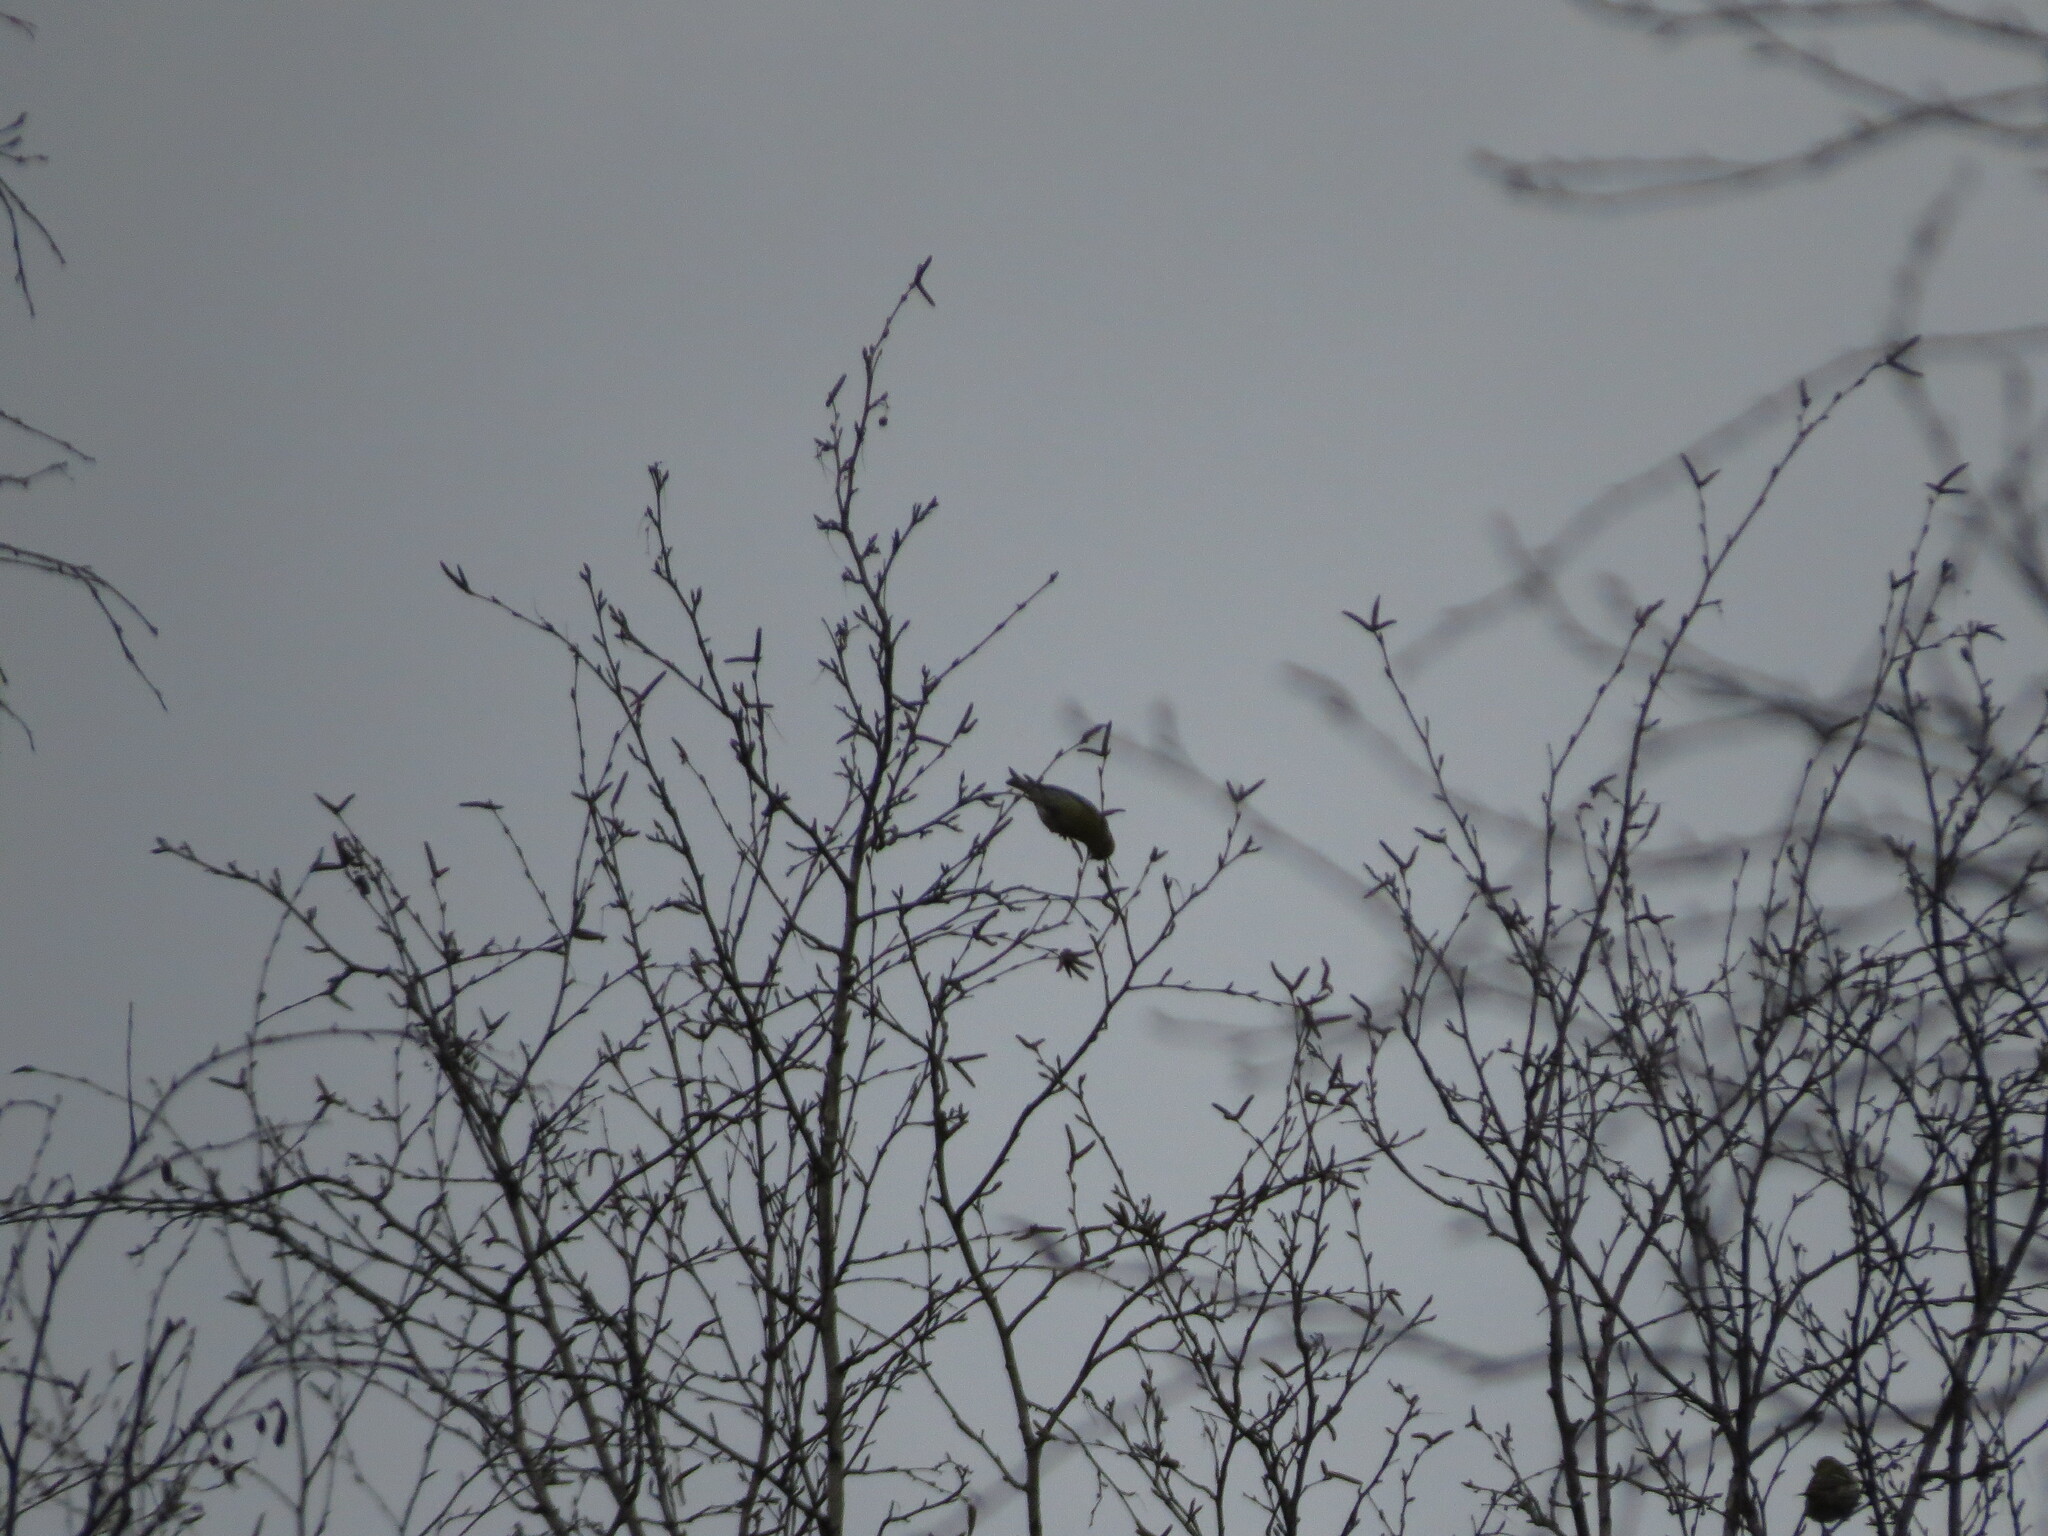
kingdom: Animalia
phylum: Chordata
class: Aves
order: Passeriformes
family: Fringillidae
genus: Spinus
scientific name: Spinus spinus
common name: Eurasian siskin
